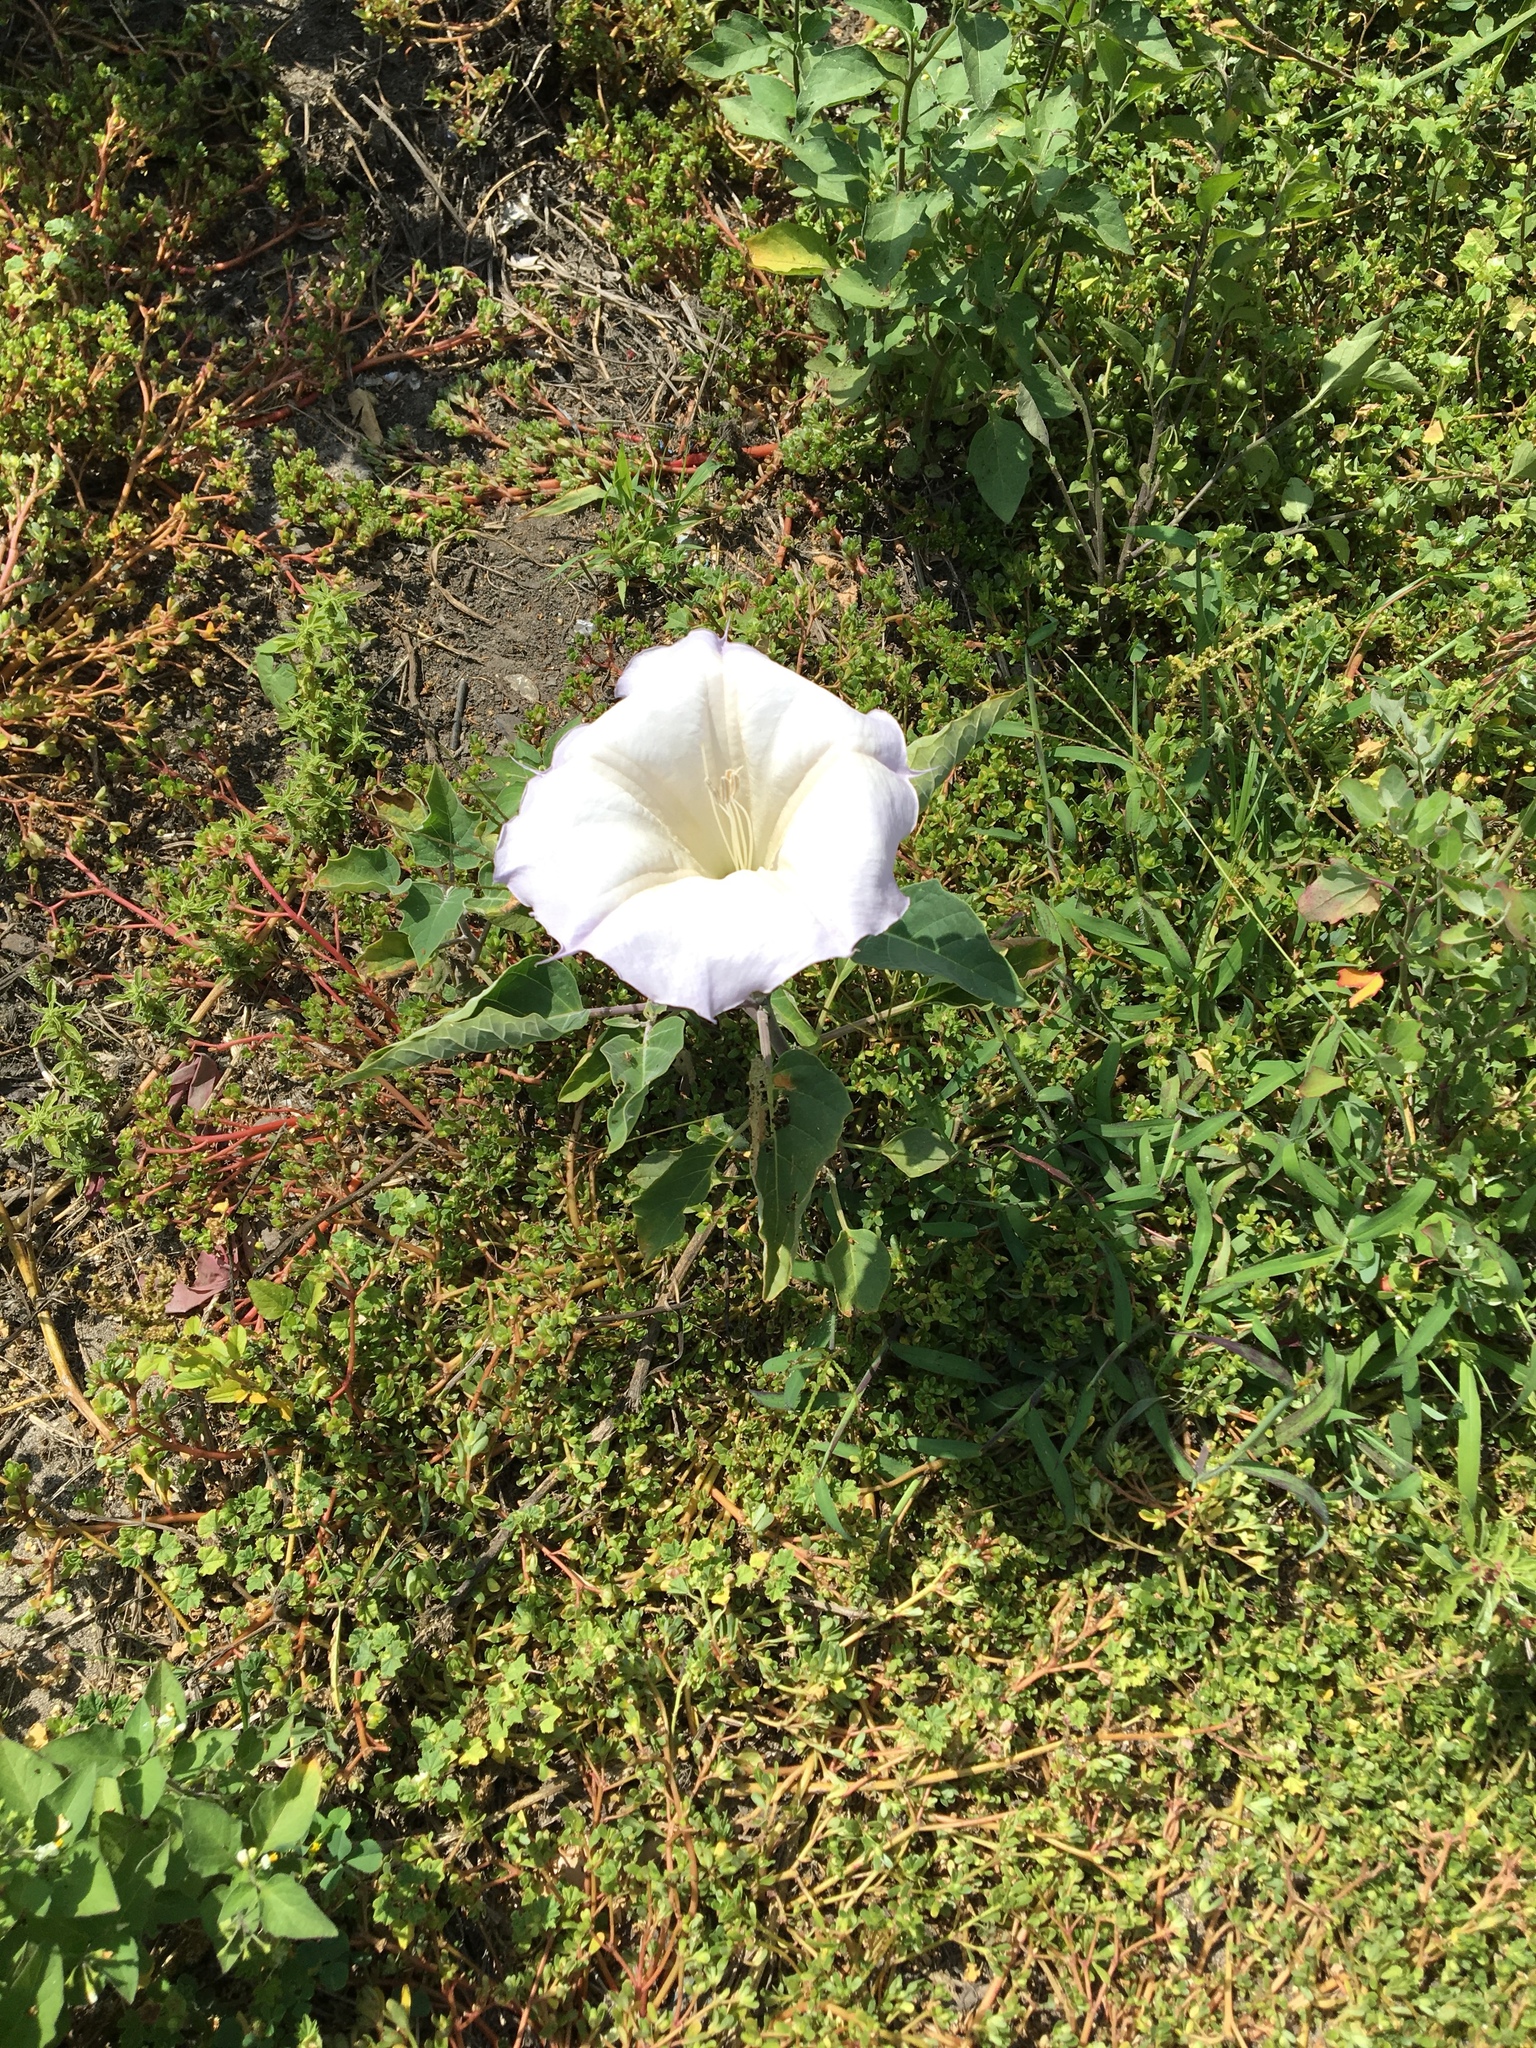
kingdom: Plantae
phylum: Tracheophyta
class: Magnoliopsida
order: Solanales
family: Solanaceae
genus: Datura
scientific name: Datura wrightii
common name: Sacred thorn-apple
